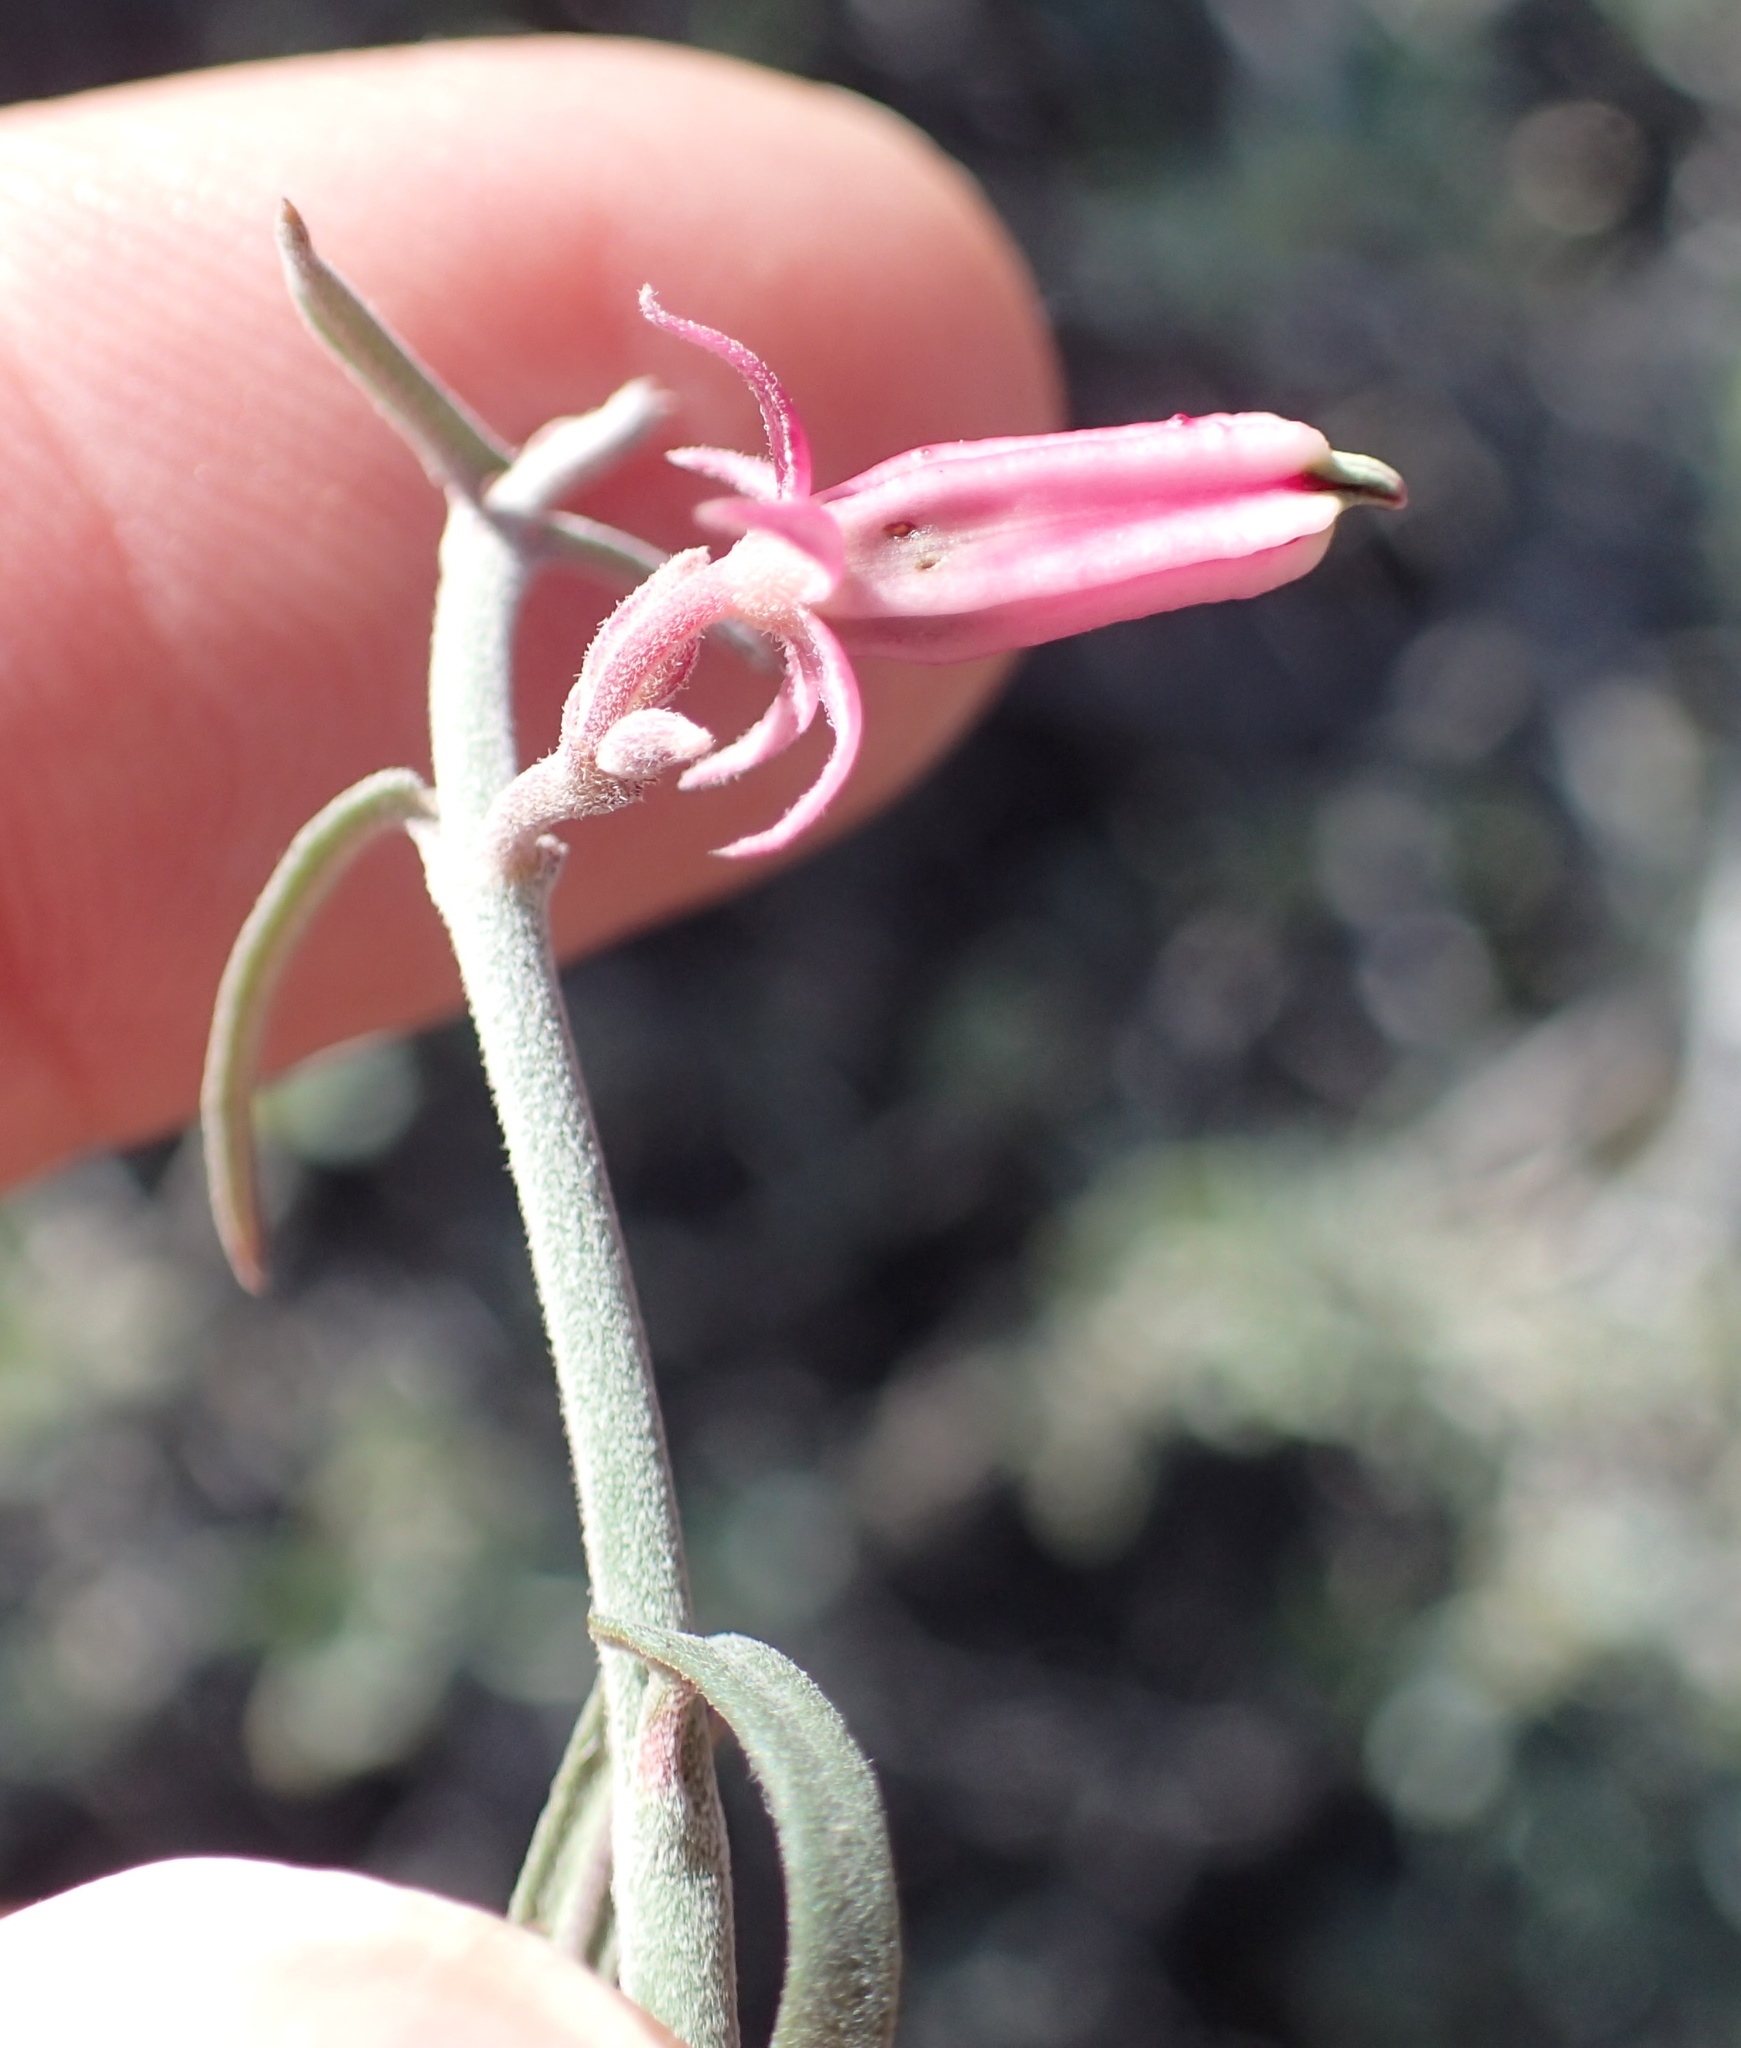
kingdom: Plantae
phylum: Tracheophyta
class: Magnoliopsida
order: Gentianales
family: Apocynaceae
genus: Microloma
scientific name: Microloma sagittatum
